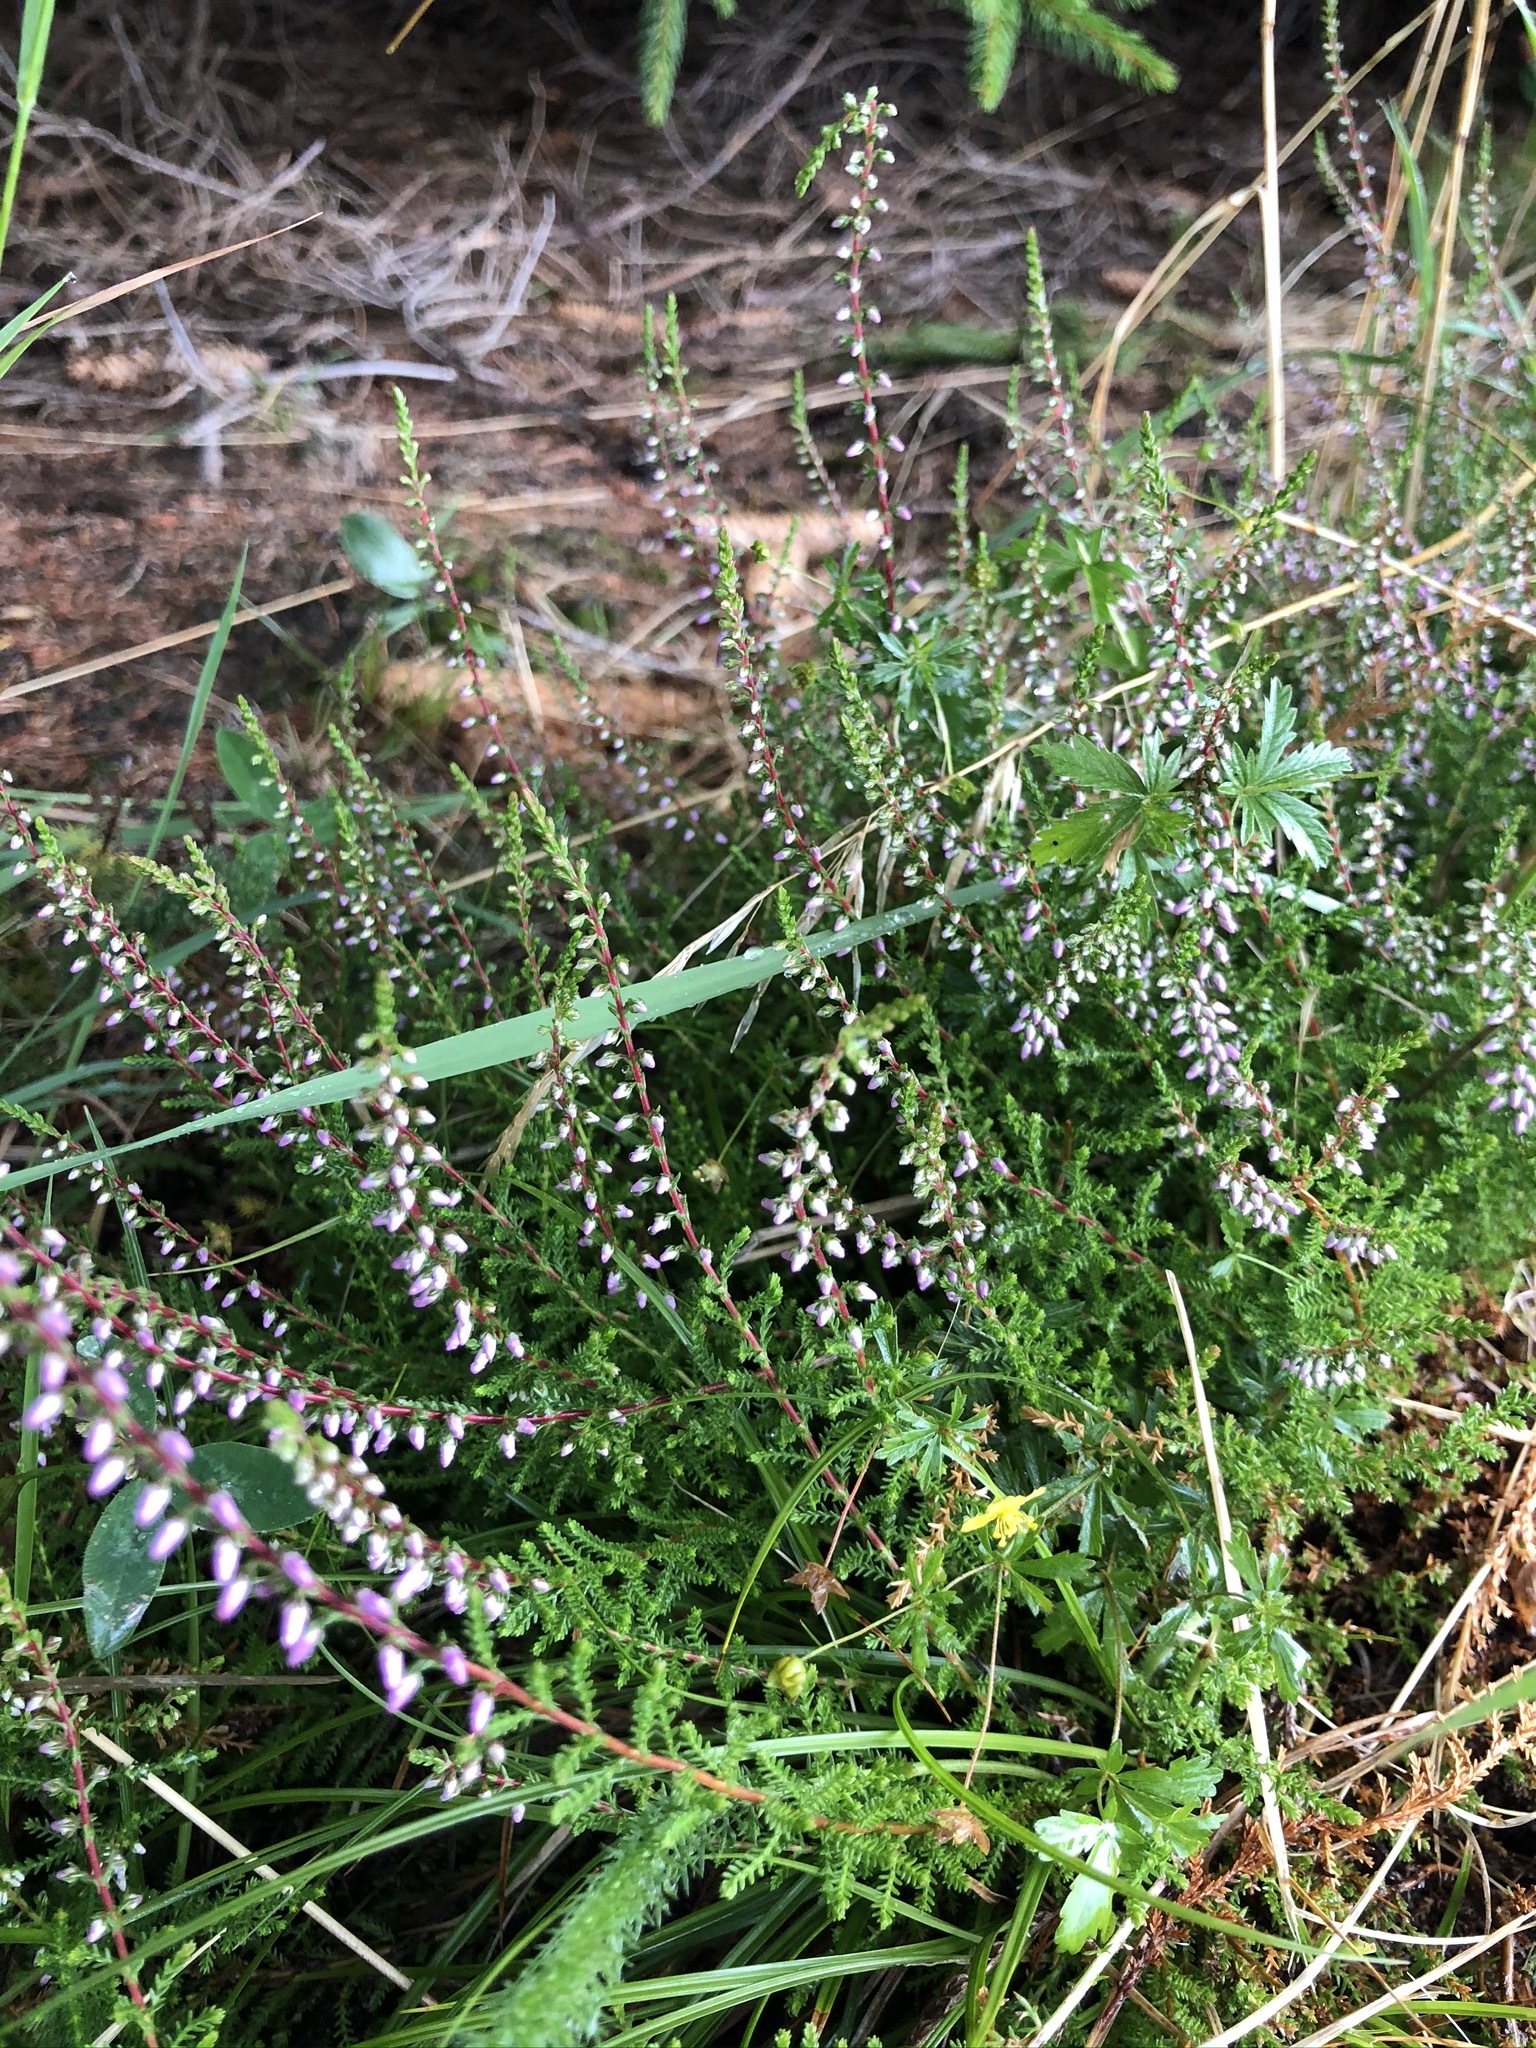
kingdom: Plantae
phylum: Tracheophyta
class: Magnoliopsida
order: Ericales
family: Ericaceae
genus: Calluna
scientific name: Calluna vulgaris
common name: Heather
